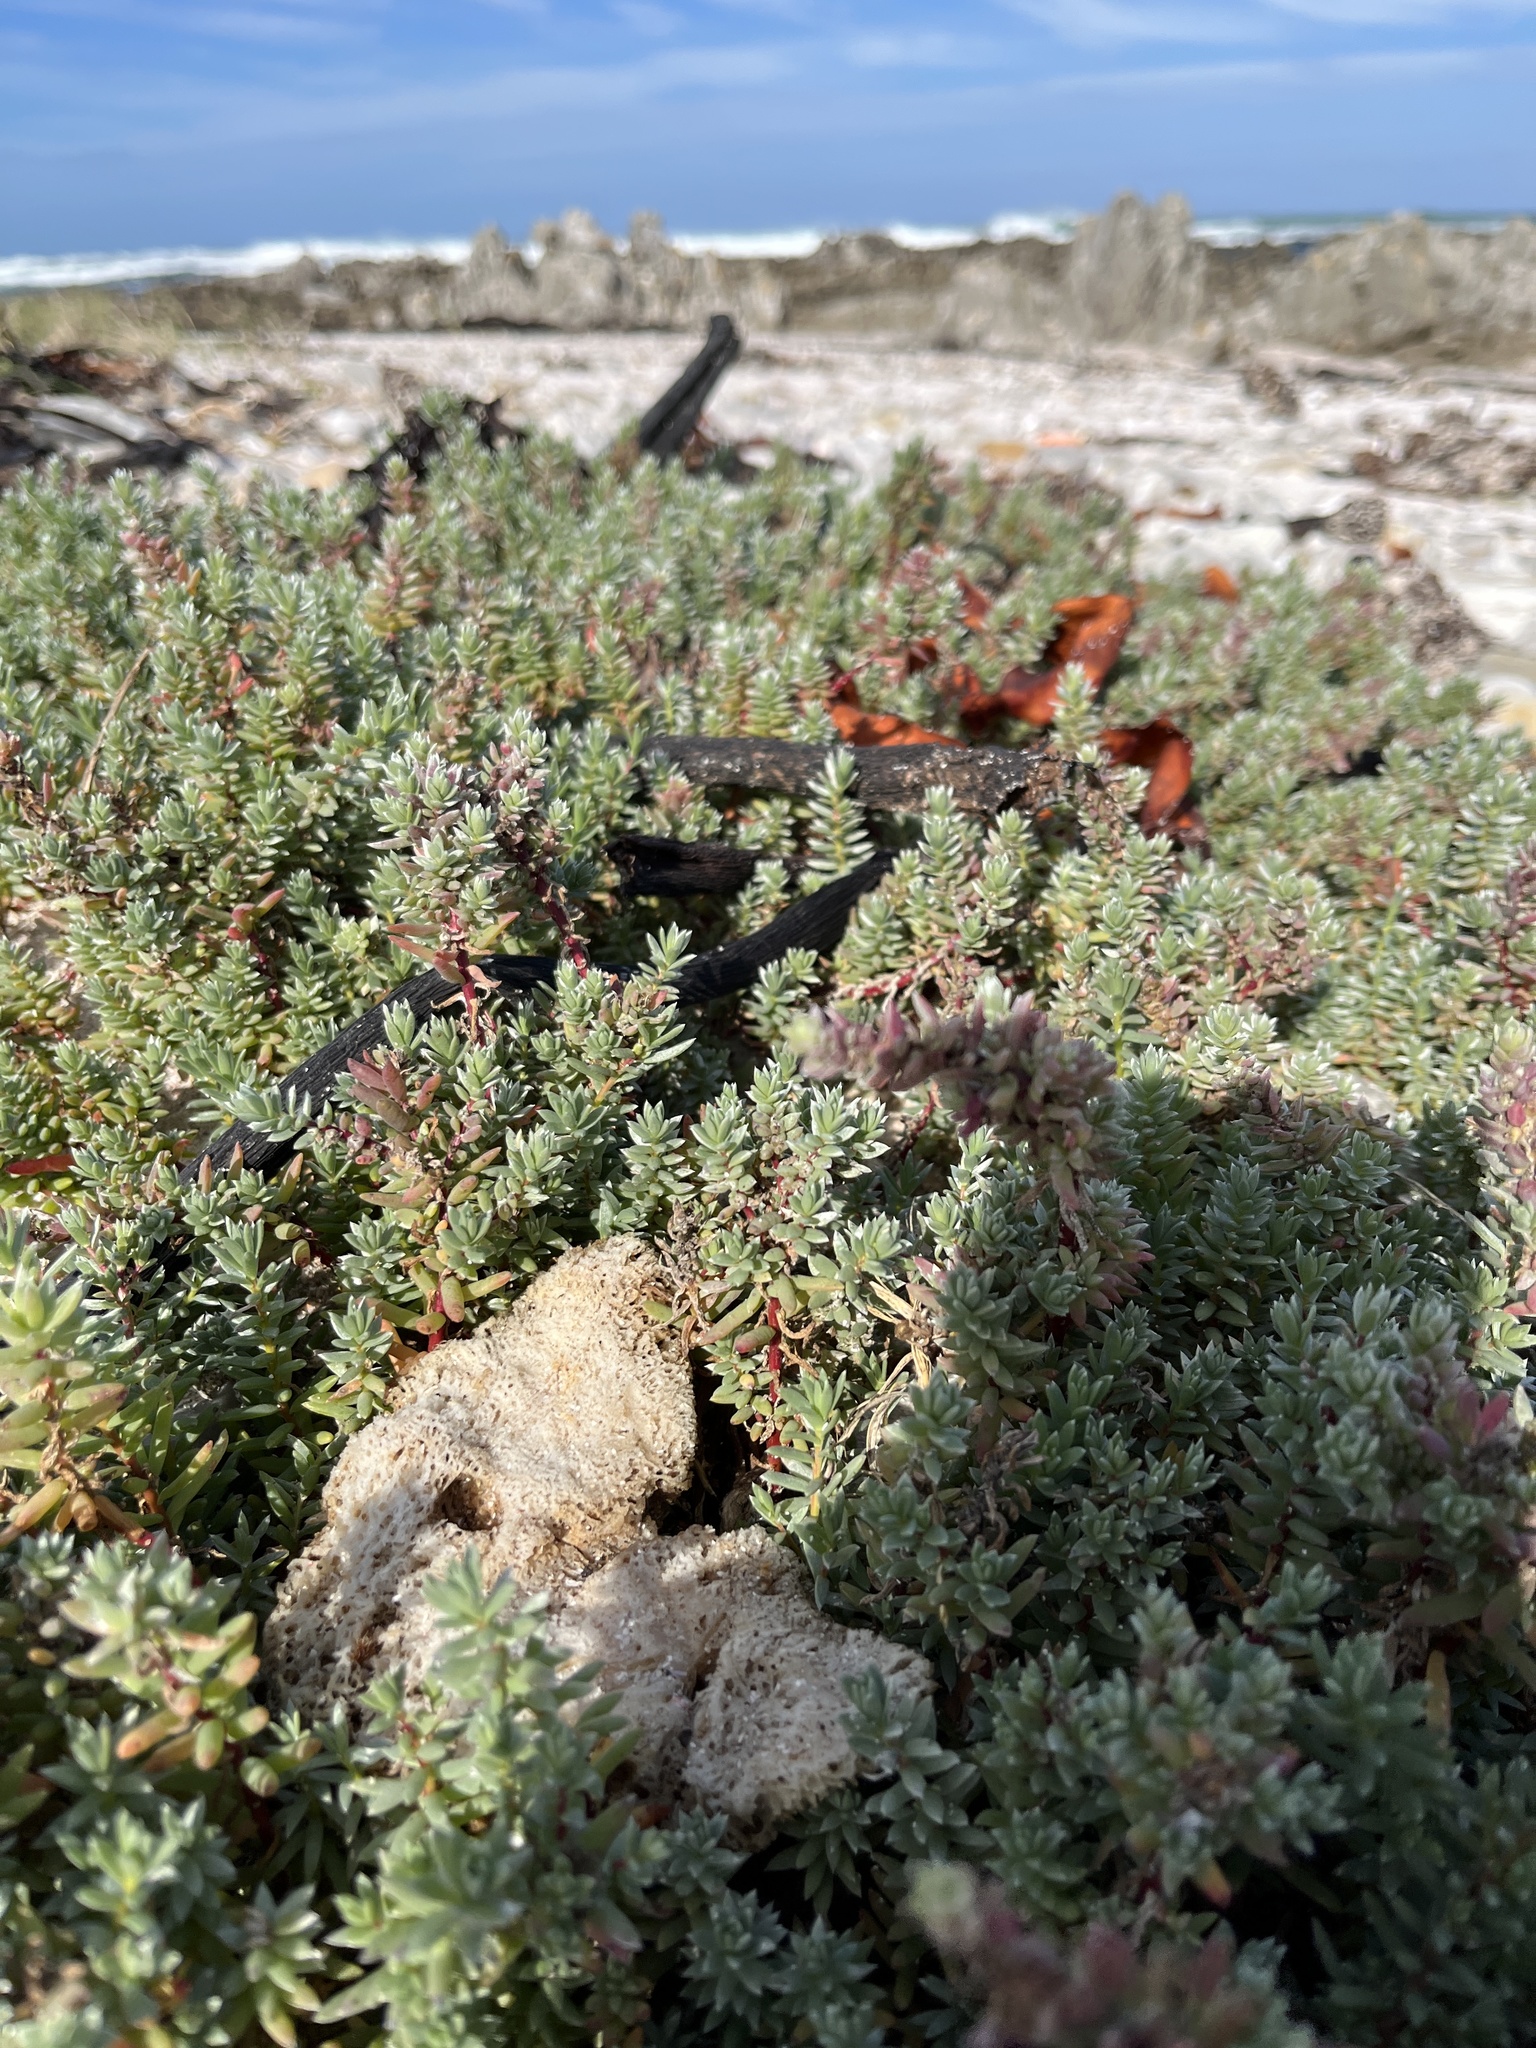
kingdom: Plantae
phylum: Tracheophyta
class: Magnoliopsida
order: Caryophyllales
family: Amaranthaceae
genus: Chenolea
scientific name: Chenolea diffusa
